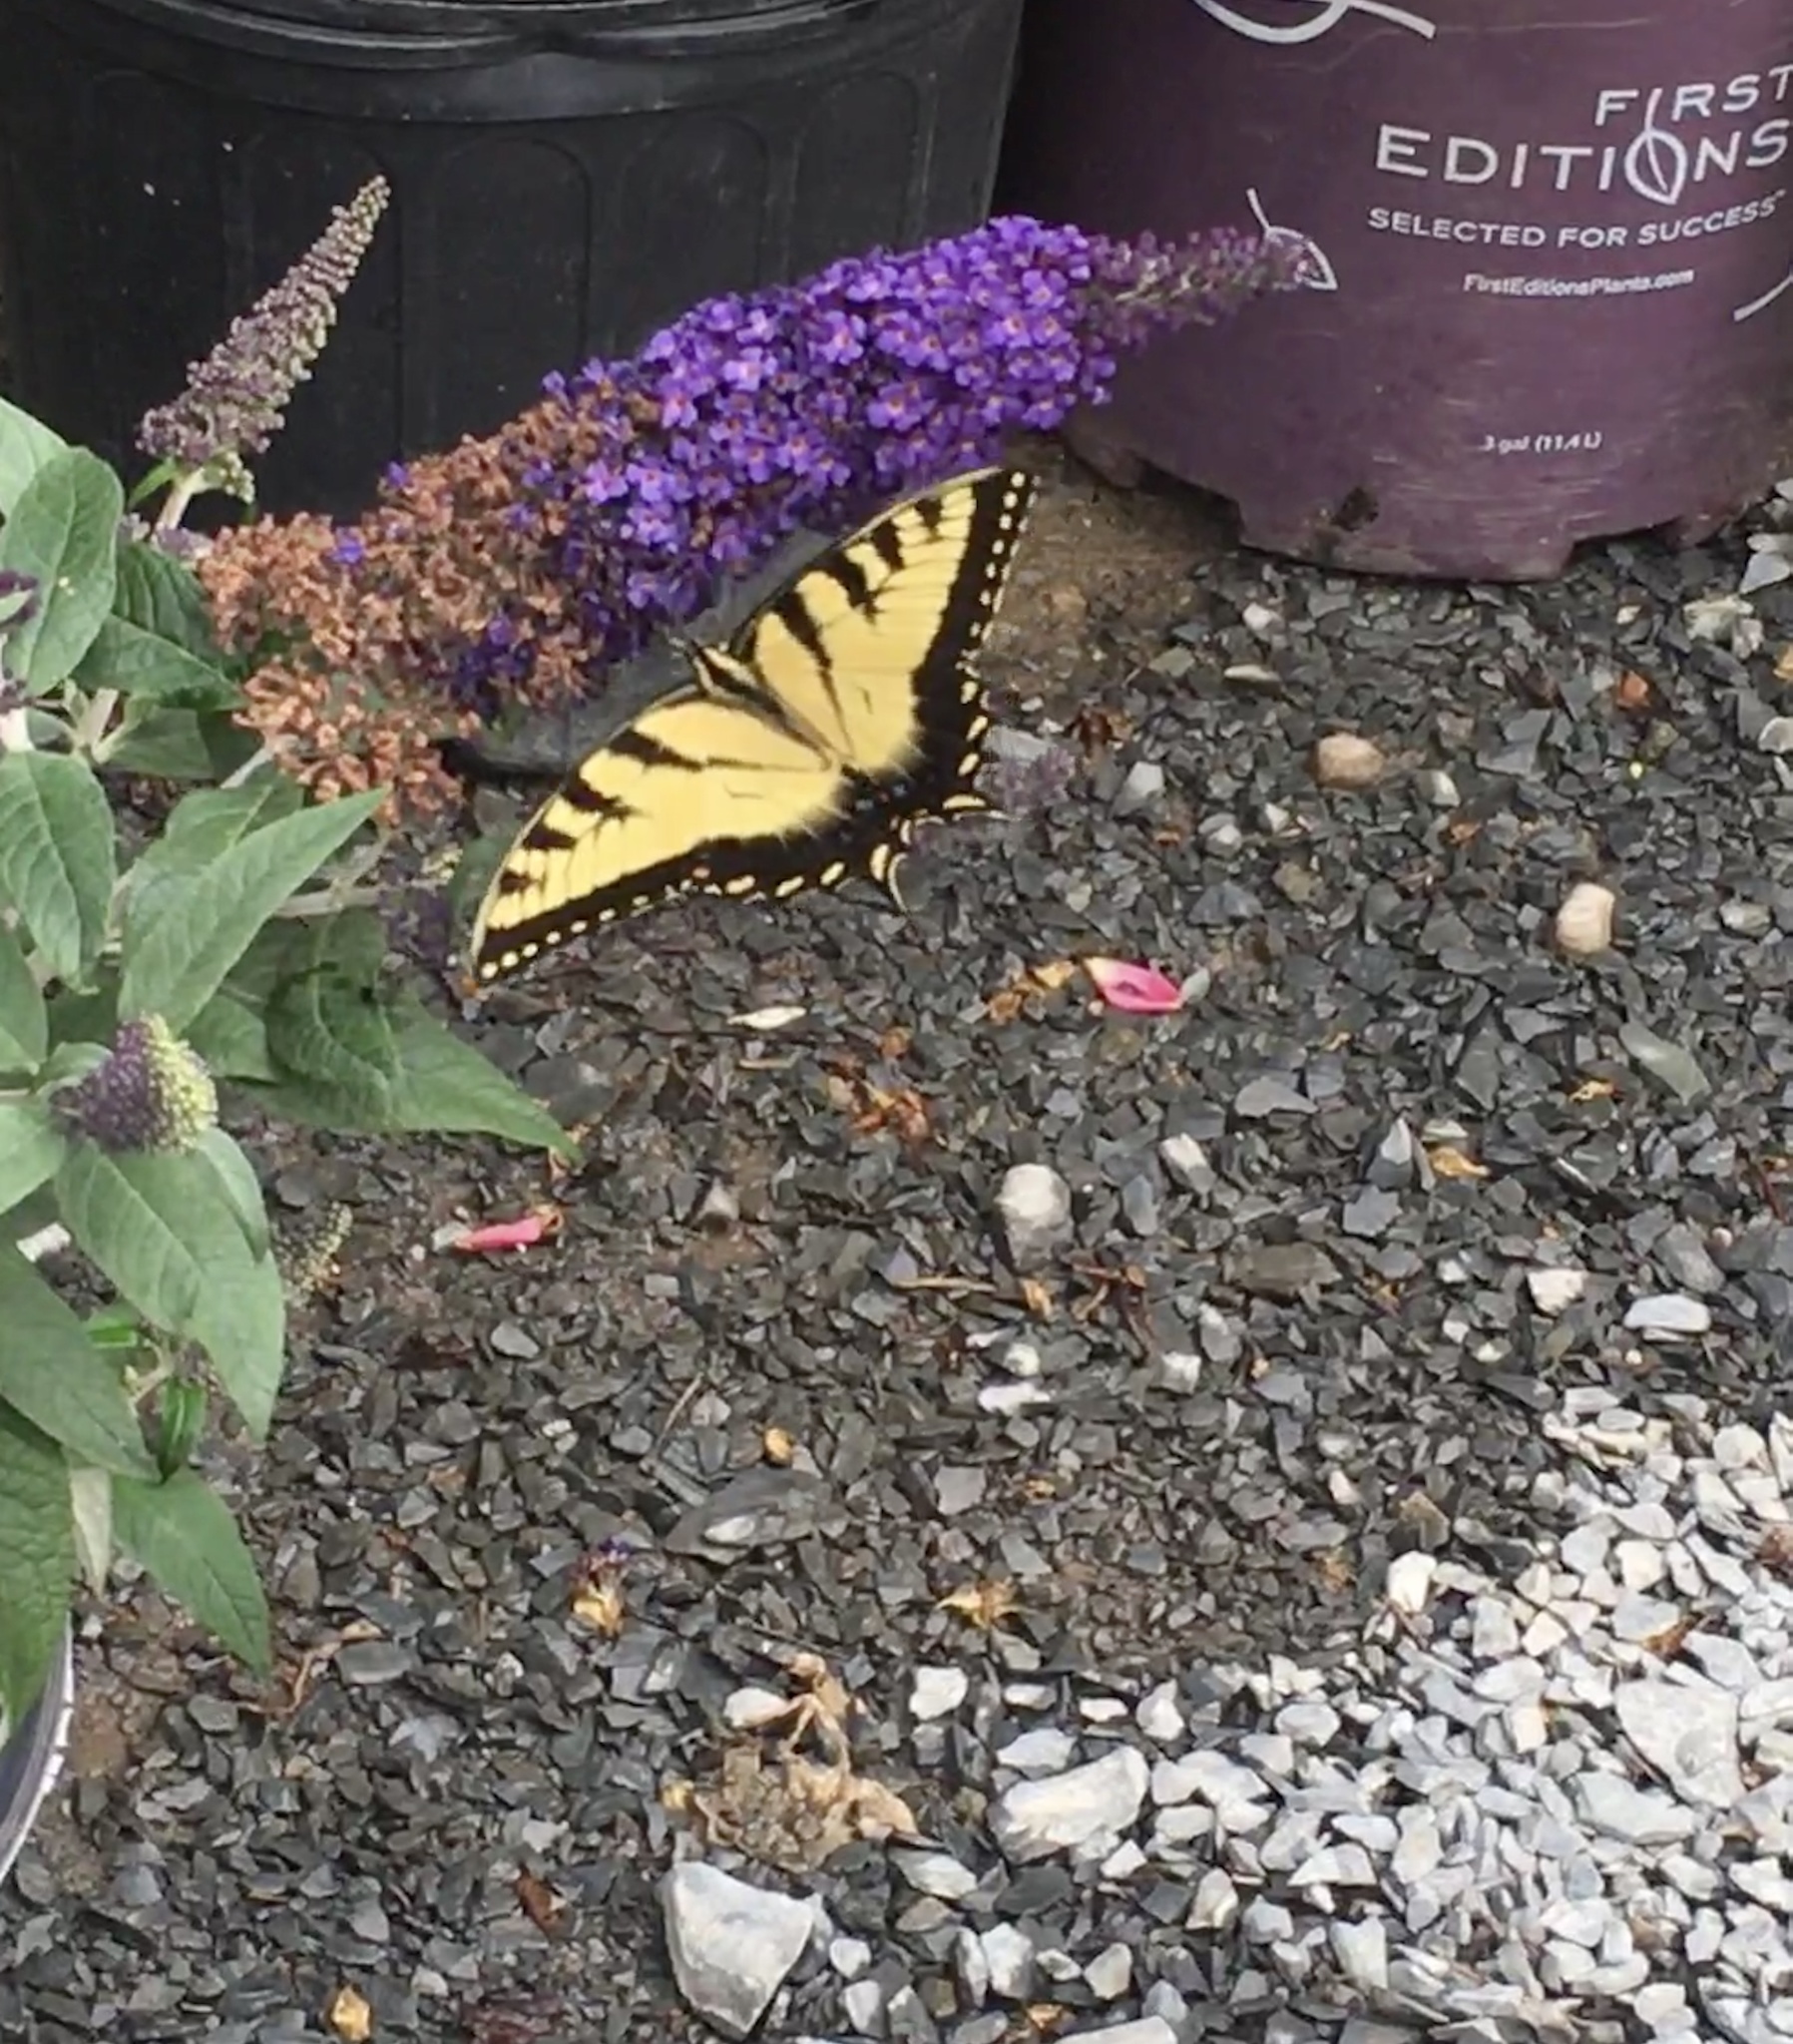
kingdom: Animalia
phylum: Arthropoda
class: Insecta
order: Lepidoptera
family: Papilionidae
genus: Papilio
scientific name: Papilio glaucus
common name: Tiger swallowtail
